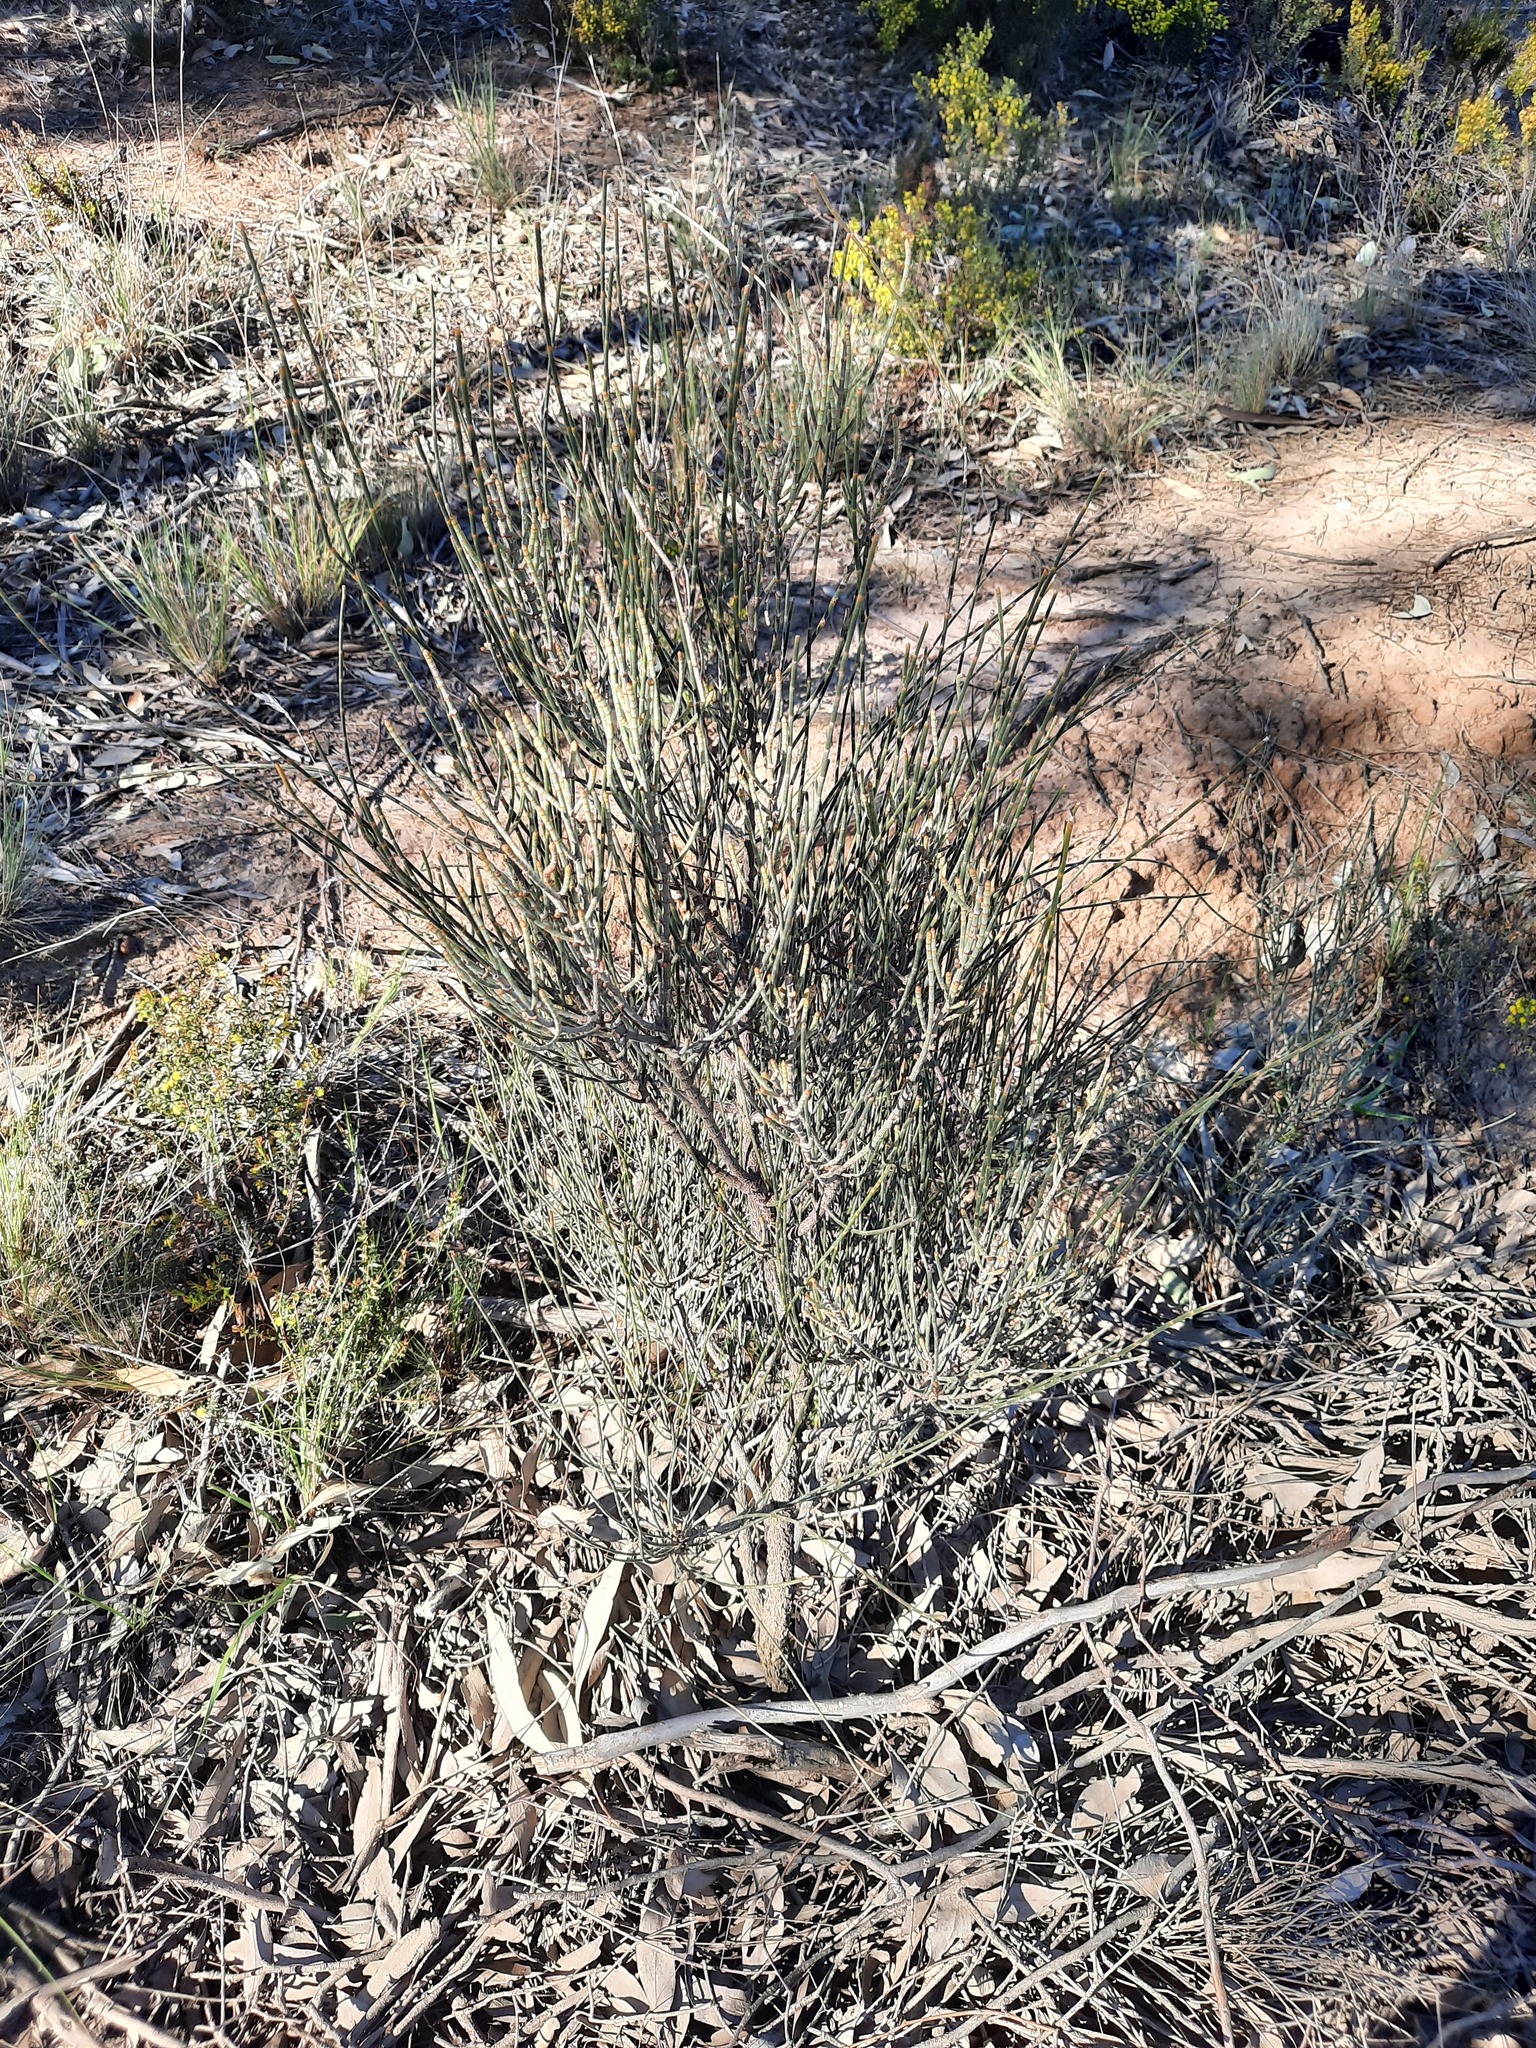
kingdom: Plantae
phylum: Tracheophyta
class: Magnoliopsida
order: Fagales
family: Casuarinaceae
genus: Allocasuarina
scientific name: Allocasuarina luehmannii
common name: Bull-oak
